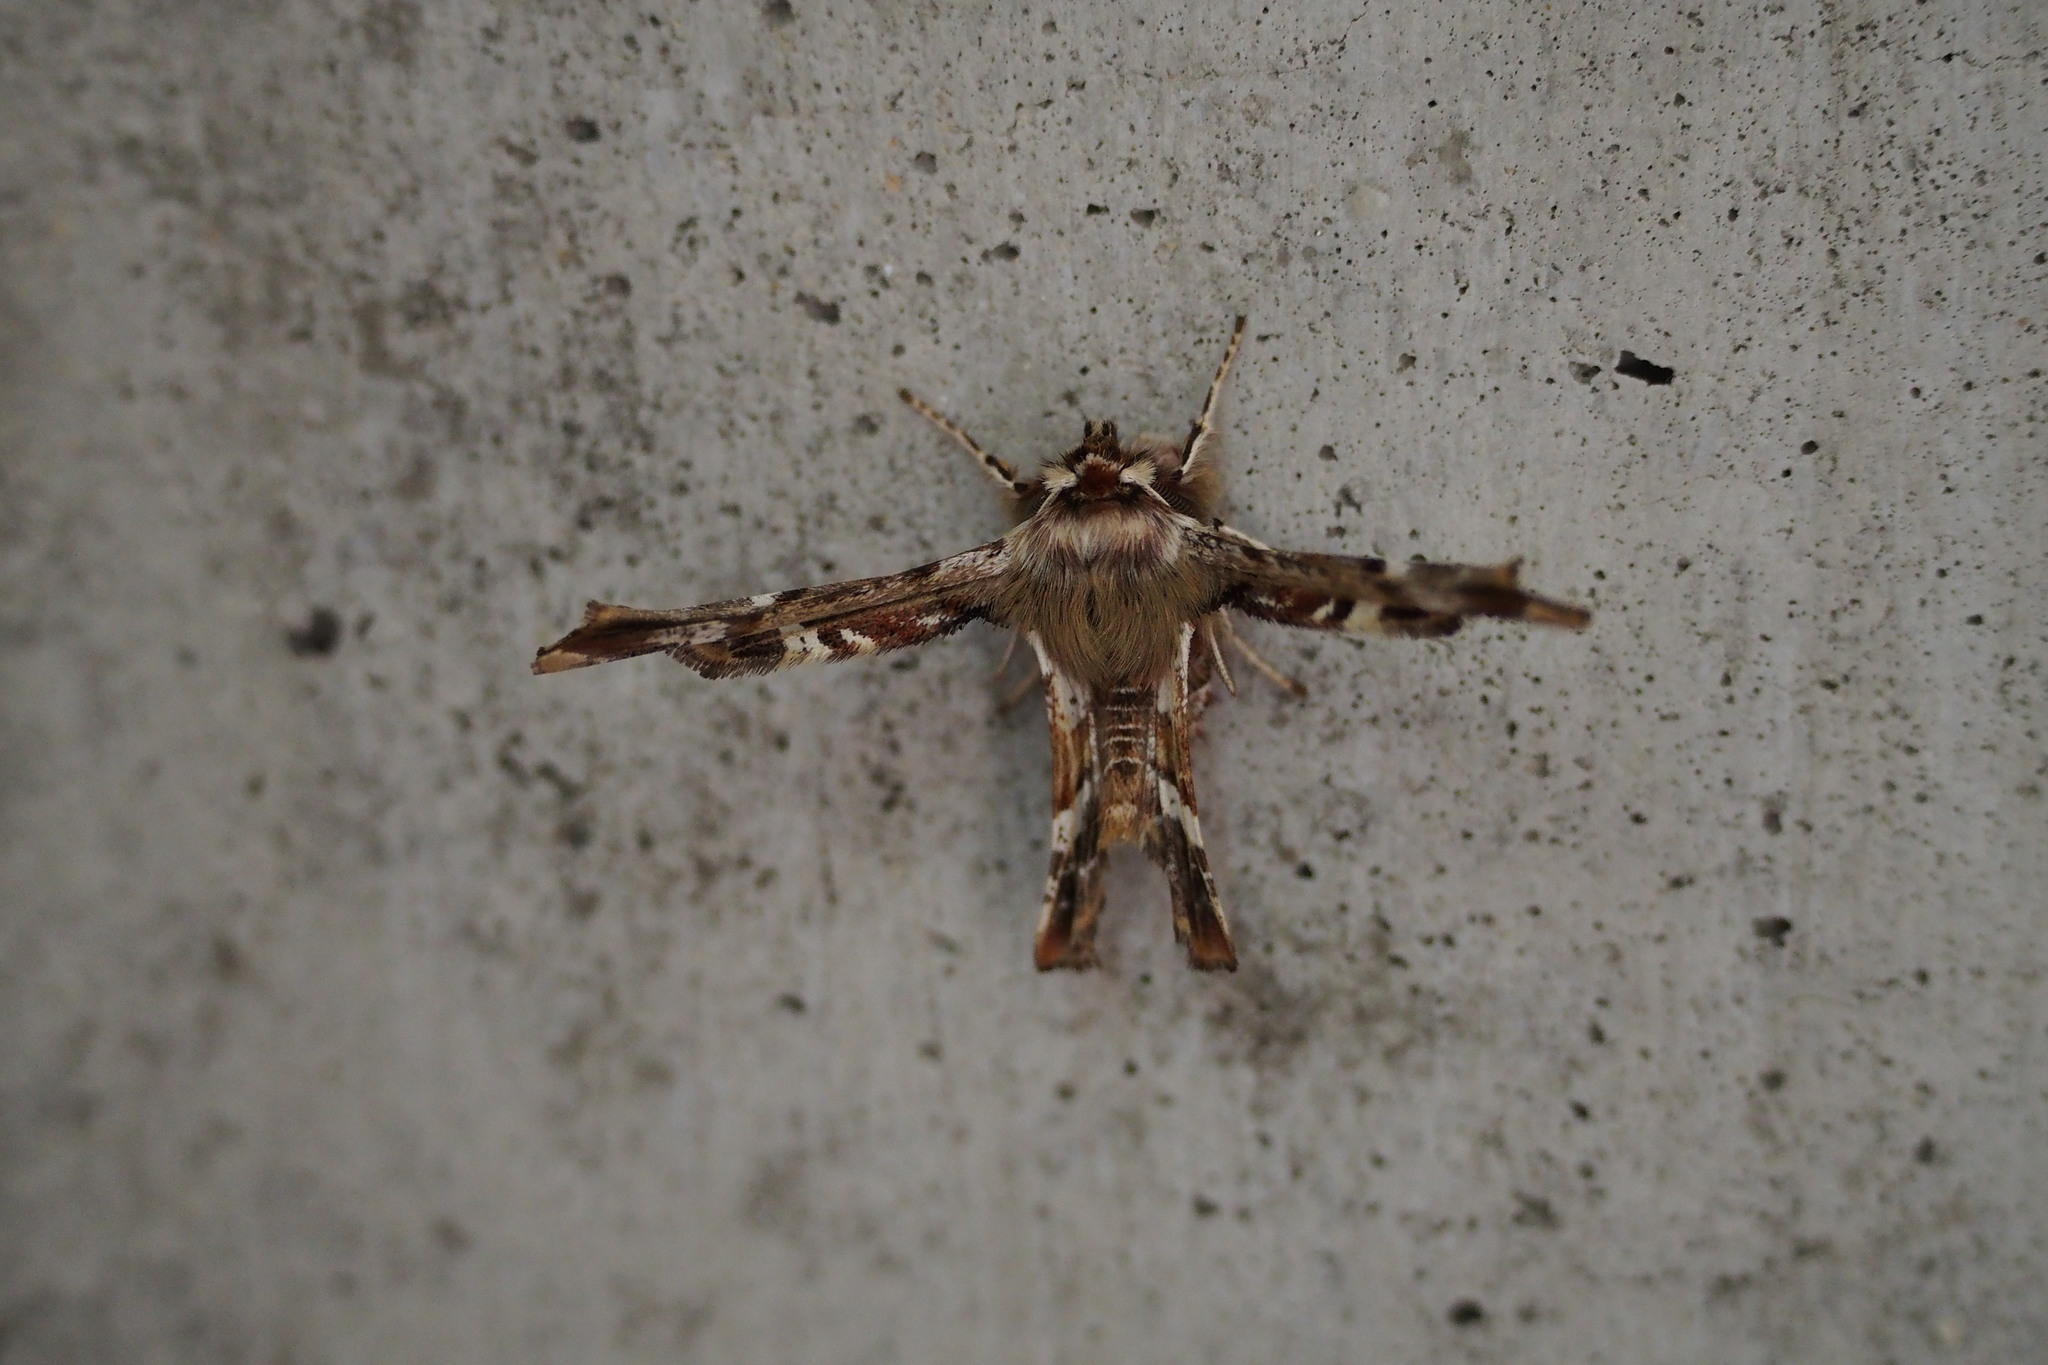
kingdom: Animalia
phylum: Arthropoda
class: Insecta
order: Lepidoptera
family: Geometridae
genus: Apochima
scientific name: Apochima juglansiaria
